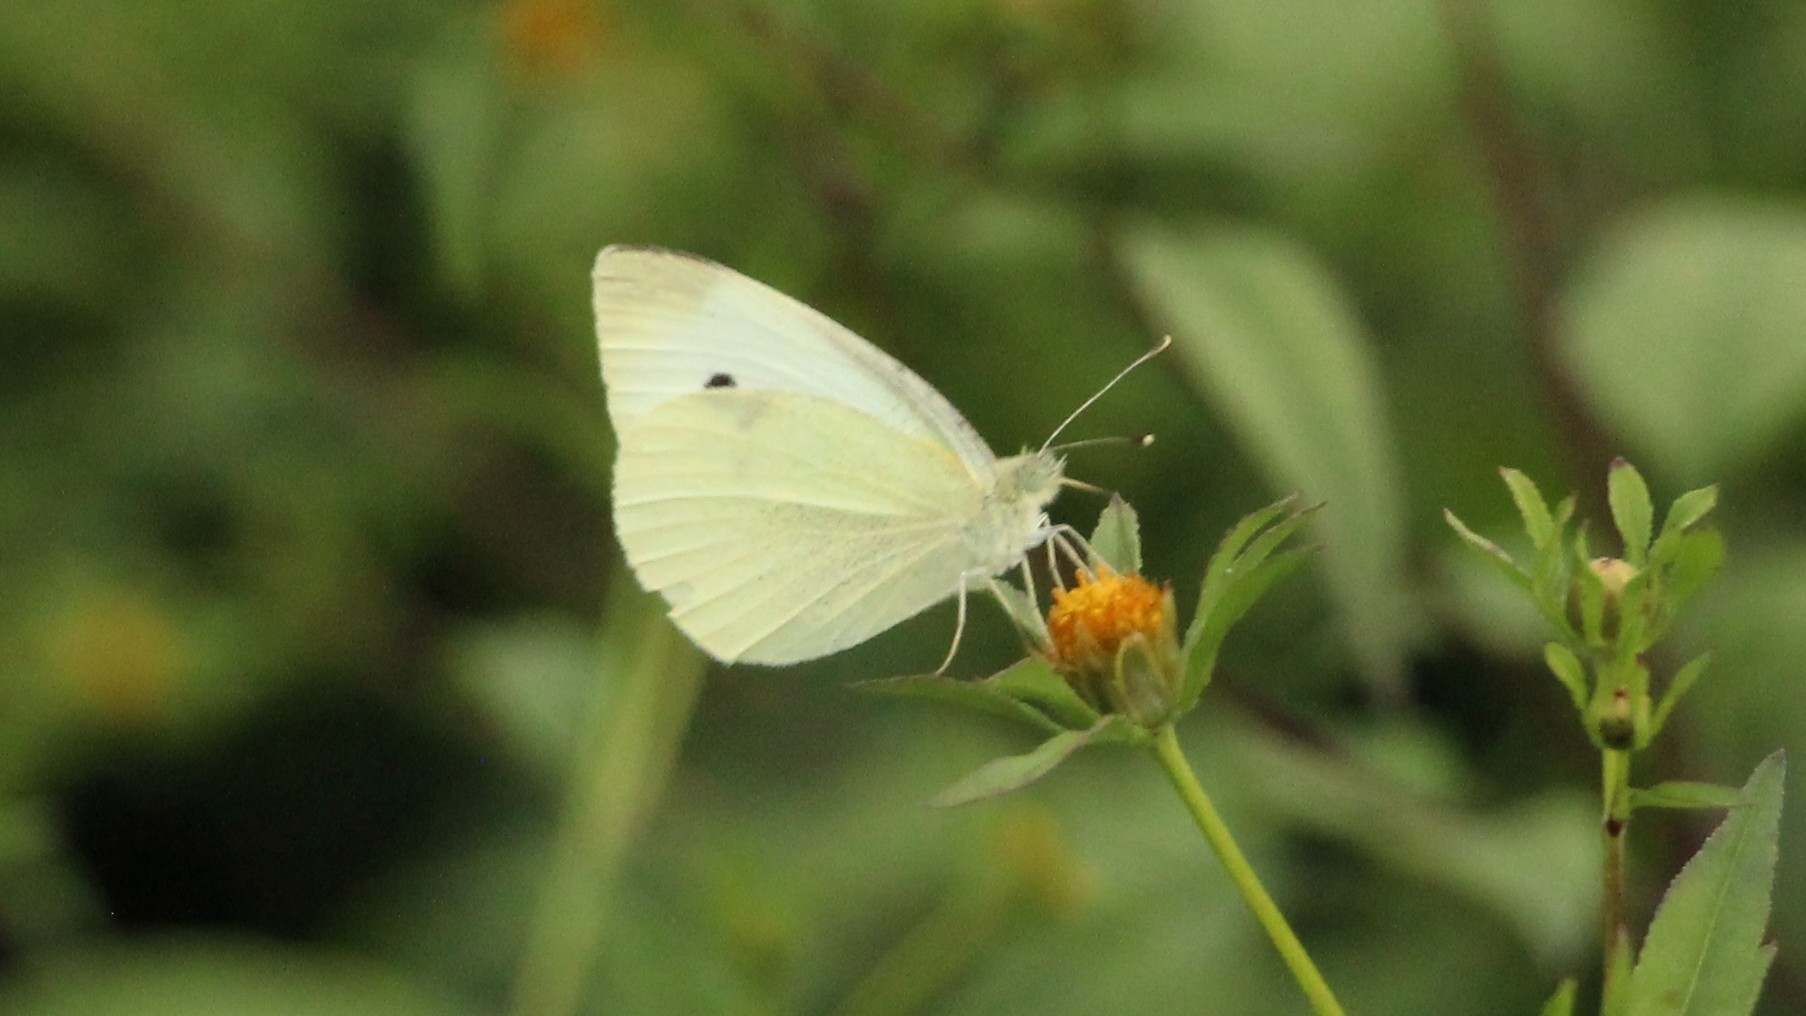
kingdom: Animalia
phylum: Arthropoda
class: Insecta
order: Lepidoptera
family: Pieridae
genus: Pieris
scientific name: Pieris rapae
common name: Small white
